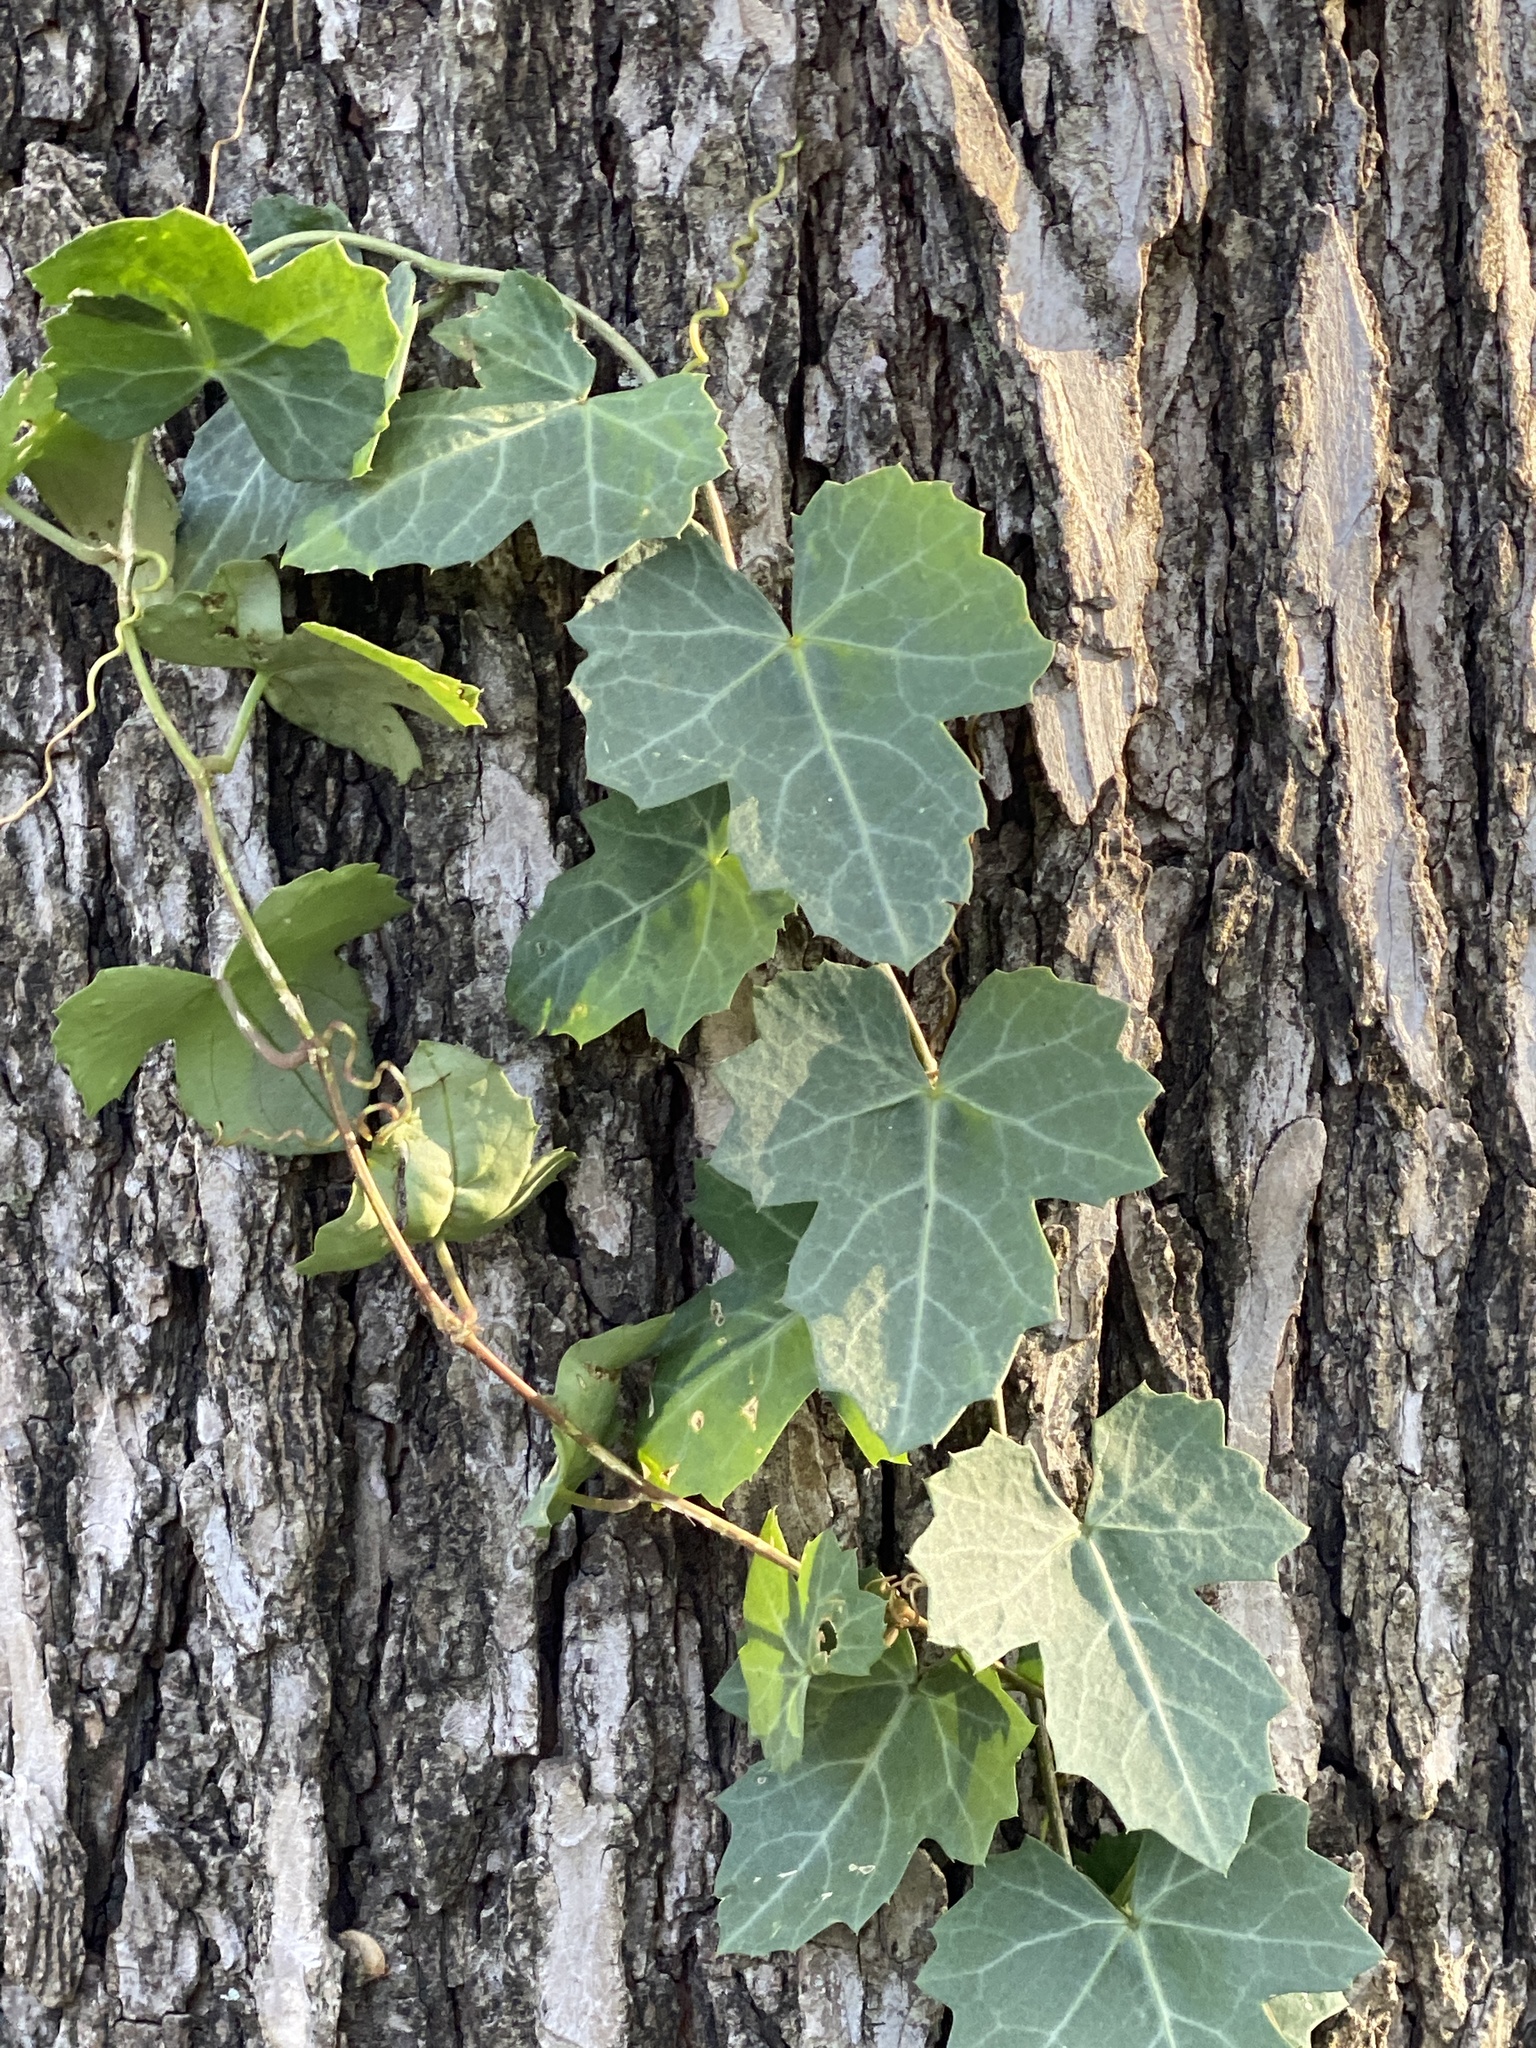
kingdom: Plantae
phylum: Tracheophyta
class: Magnoliopsida
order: Vitales
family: Vitaceae
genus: Cissus
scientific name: Cissus trifoliata
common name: Vine-sorrel
